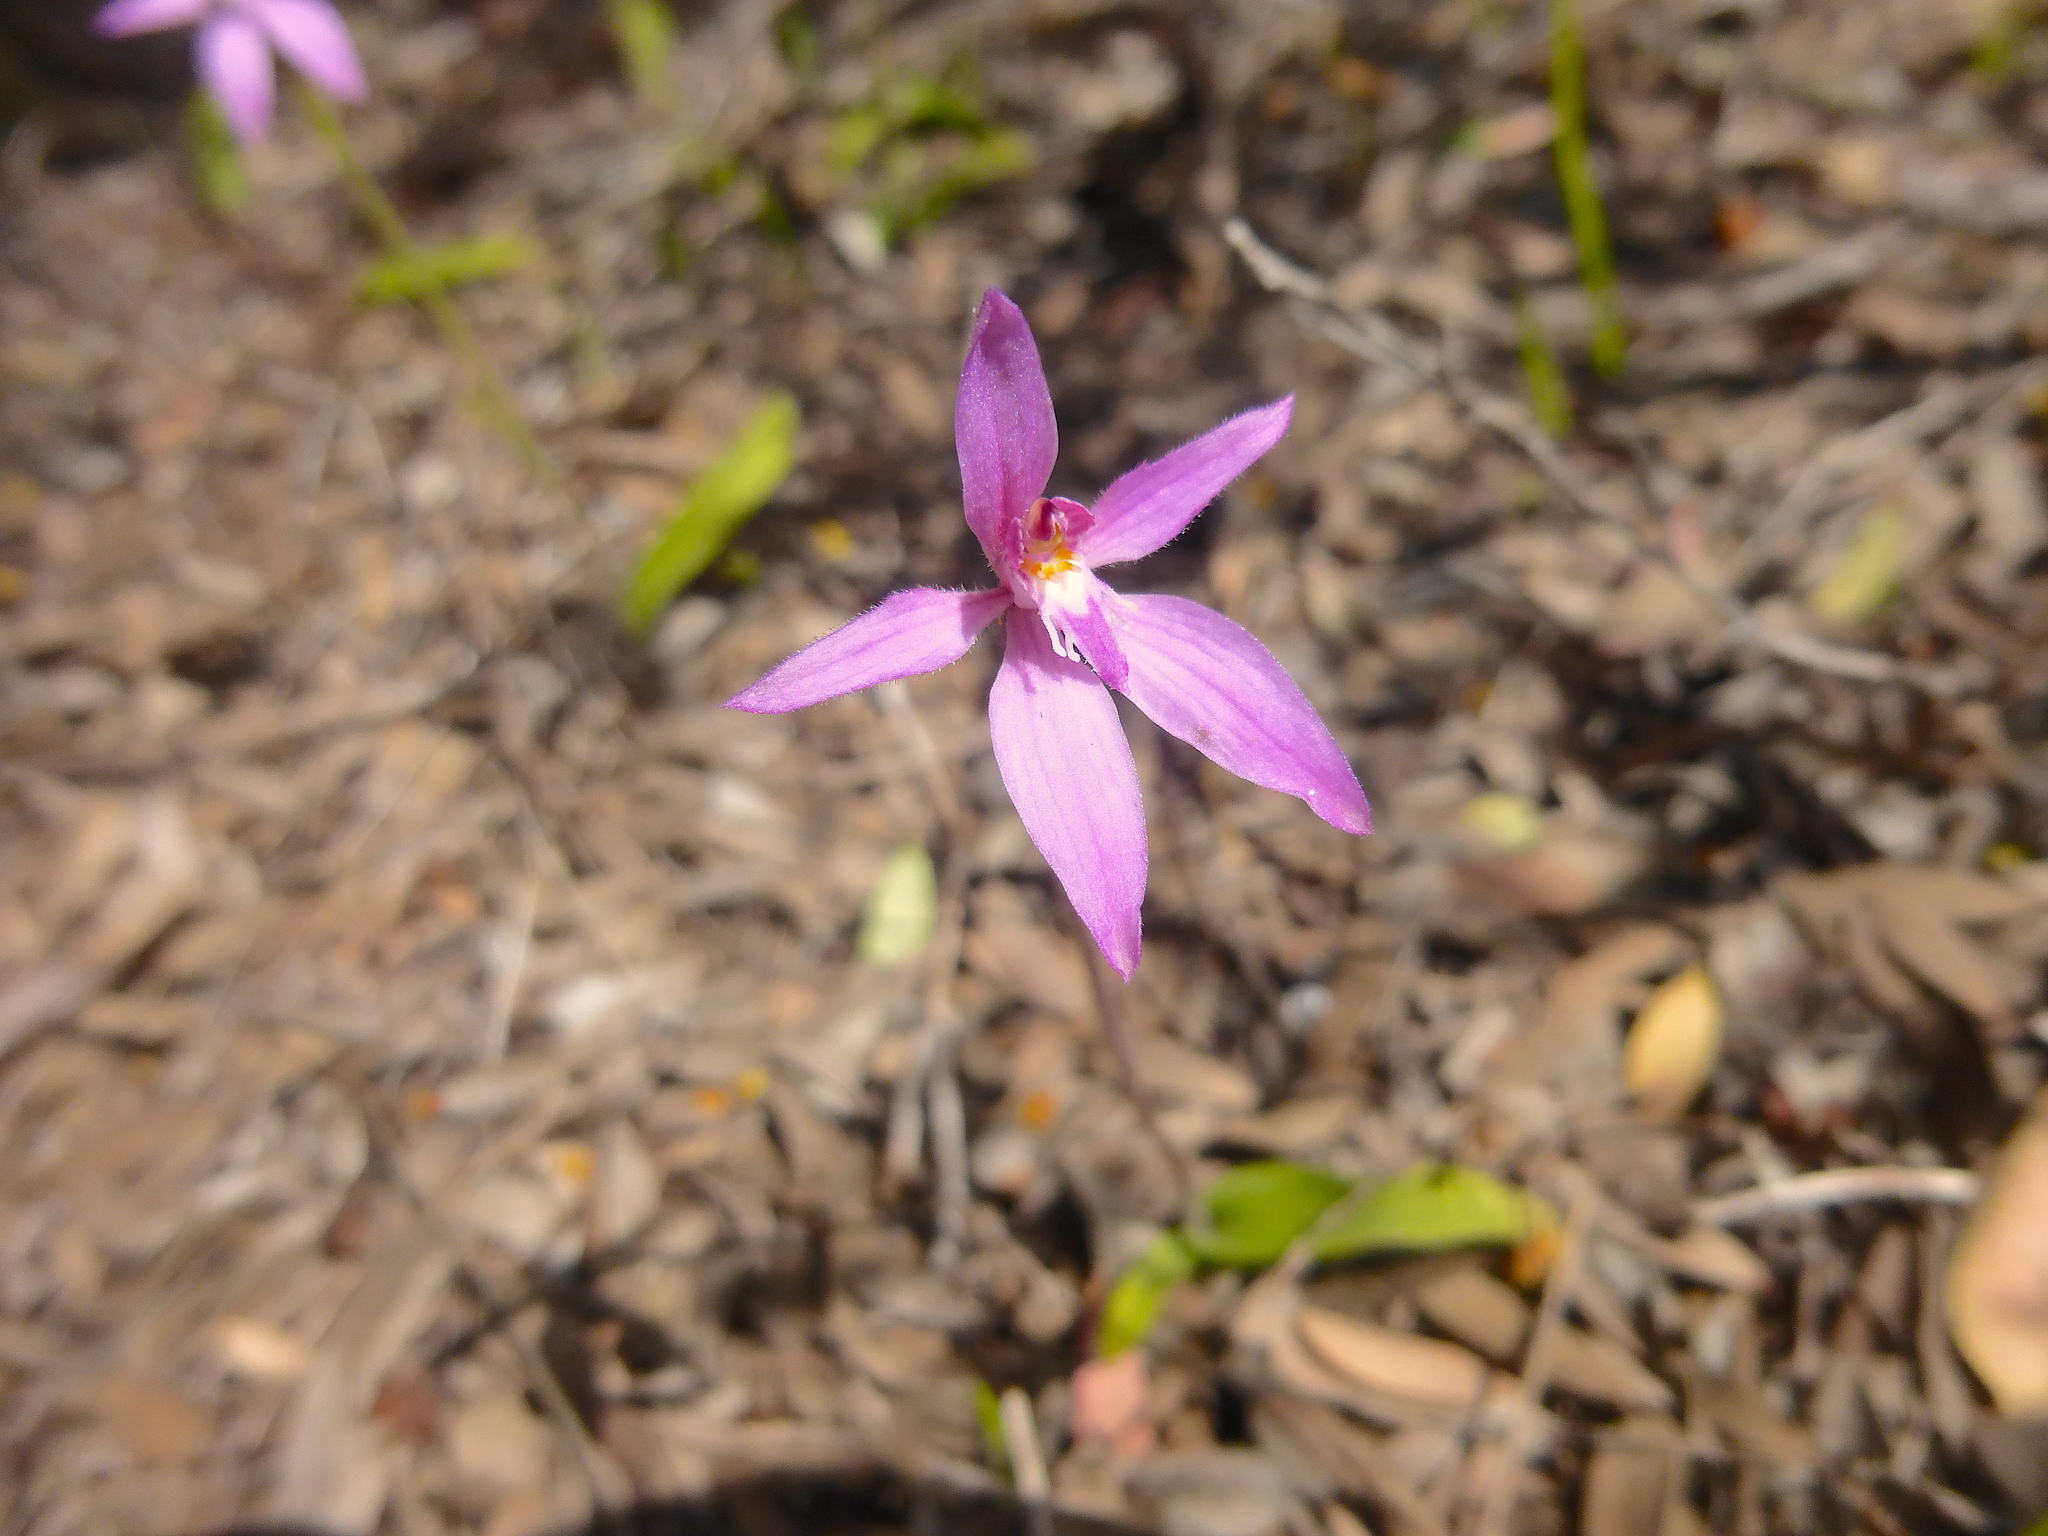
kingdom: Plantae
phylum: Tracheophyta
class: Liliopsida
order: Asparagales
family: Orchidaceae
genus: Caladenia
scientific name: Caladenia latifolia
